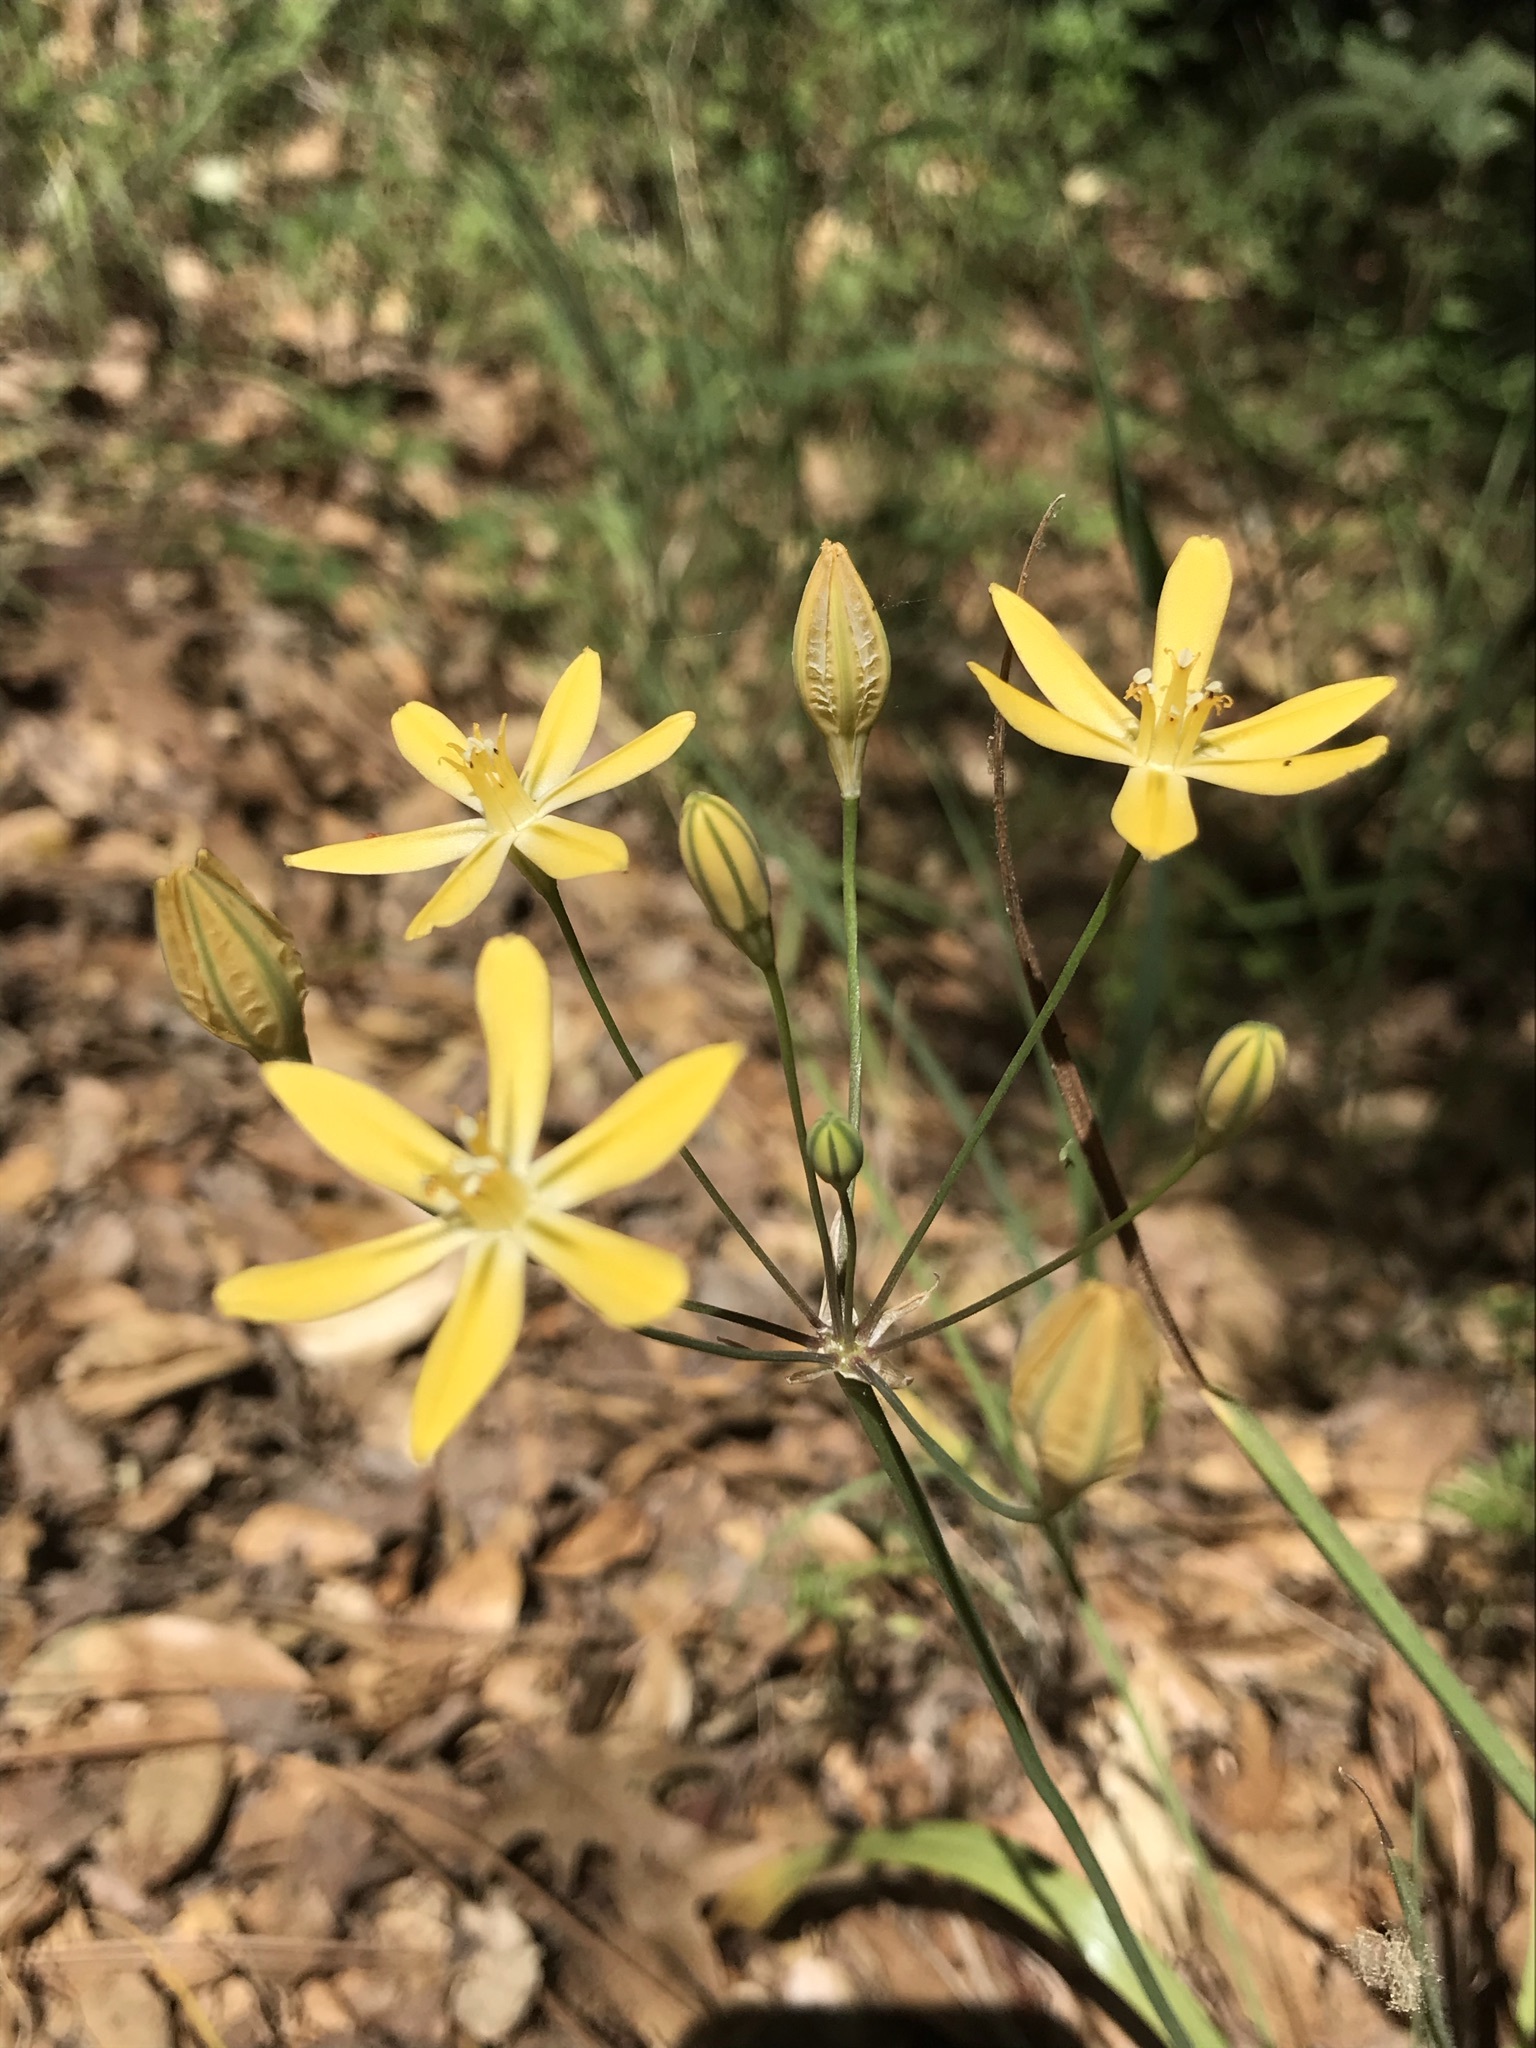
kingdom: Plantae
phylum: Tracheophyta
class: Liliopsida
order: Asparagales
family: Asparagaceae
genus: Triteleia
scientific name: Triteleia ixioides
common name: Yellow-brodiaea
